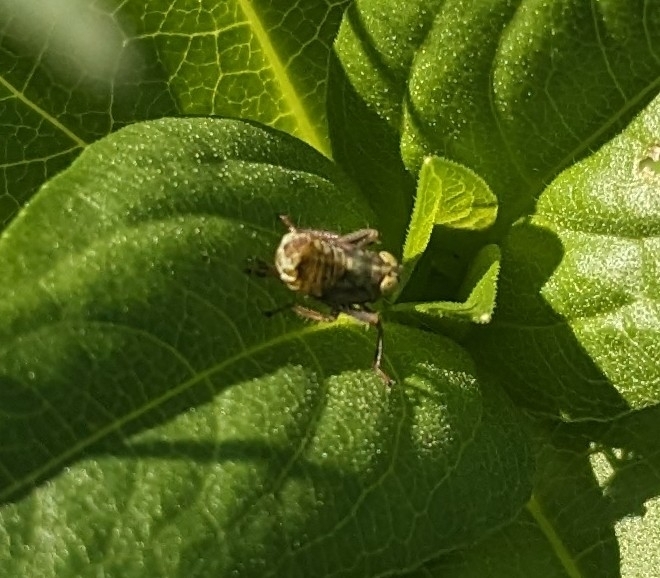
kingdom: Animalia
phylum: Arthropoda
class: Insecta
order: Hemiptera
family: Cicadellidae
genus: Jikradia
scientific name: Jikradia olitoria
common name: Coppery leafhopper
